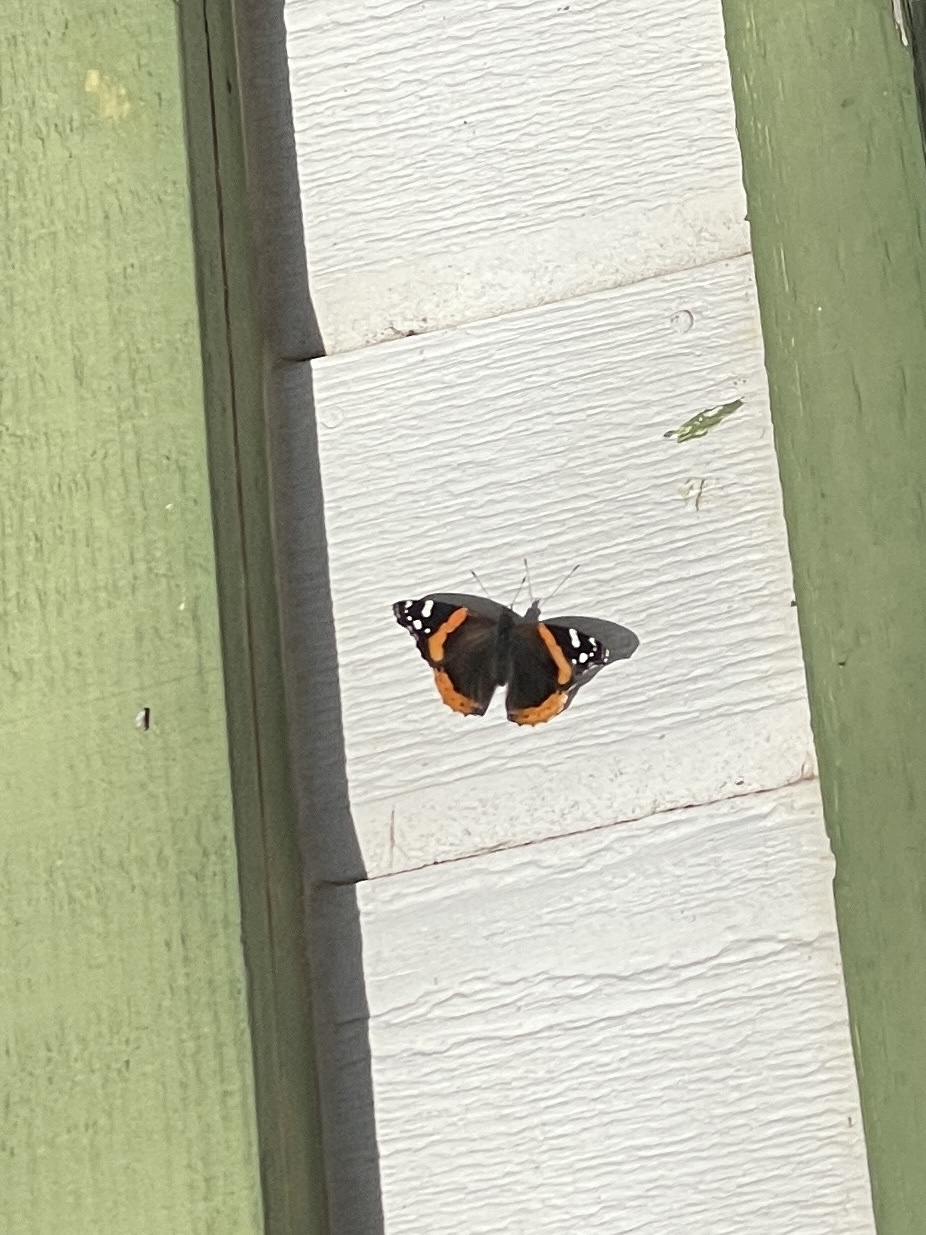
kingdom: Animalia
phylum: Arthropoda
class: Insecta
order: Lepidoptera
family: Nymphalidae
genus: Vanessa
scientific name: Vanessa atalanta
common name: Red admiral
